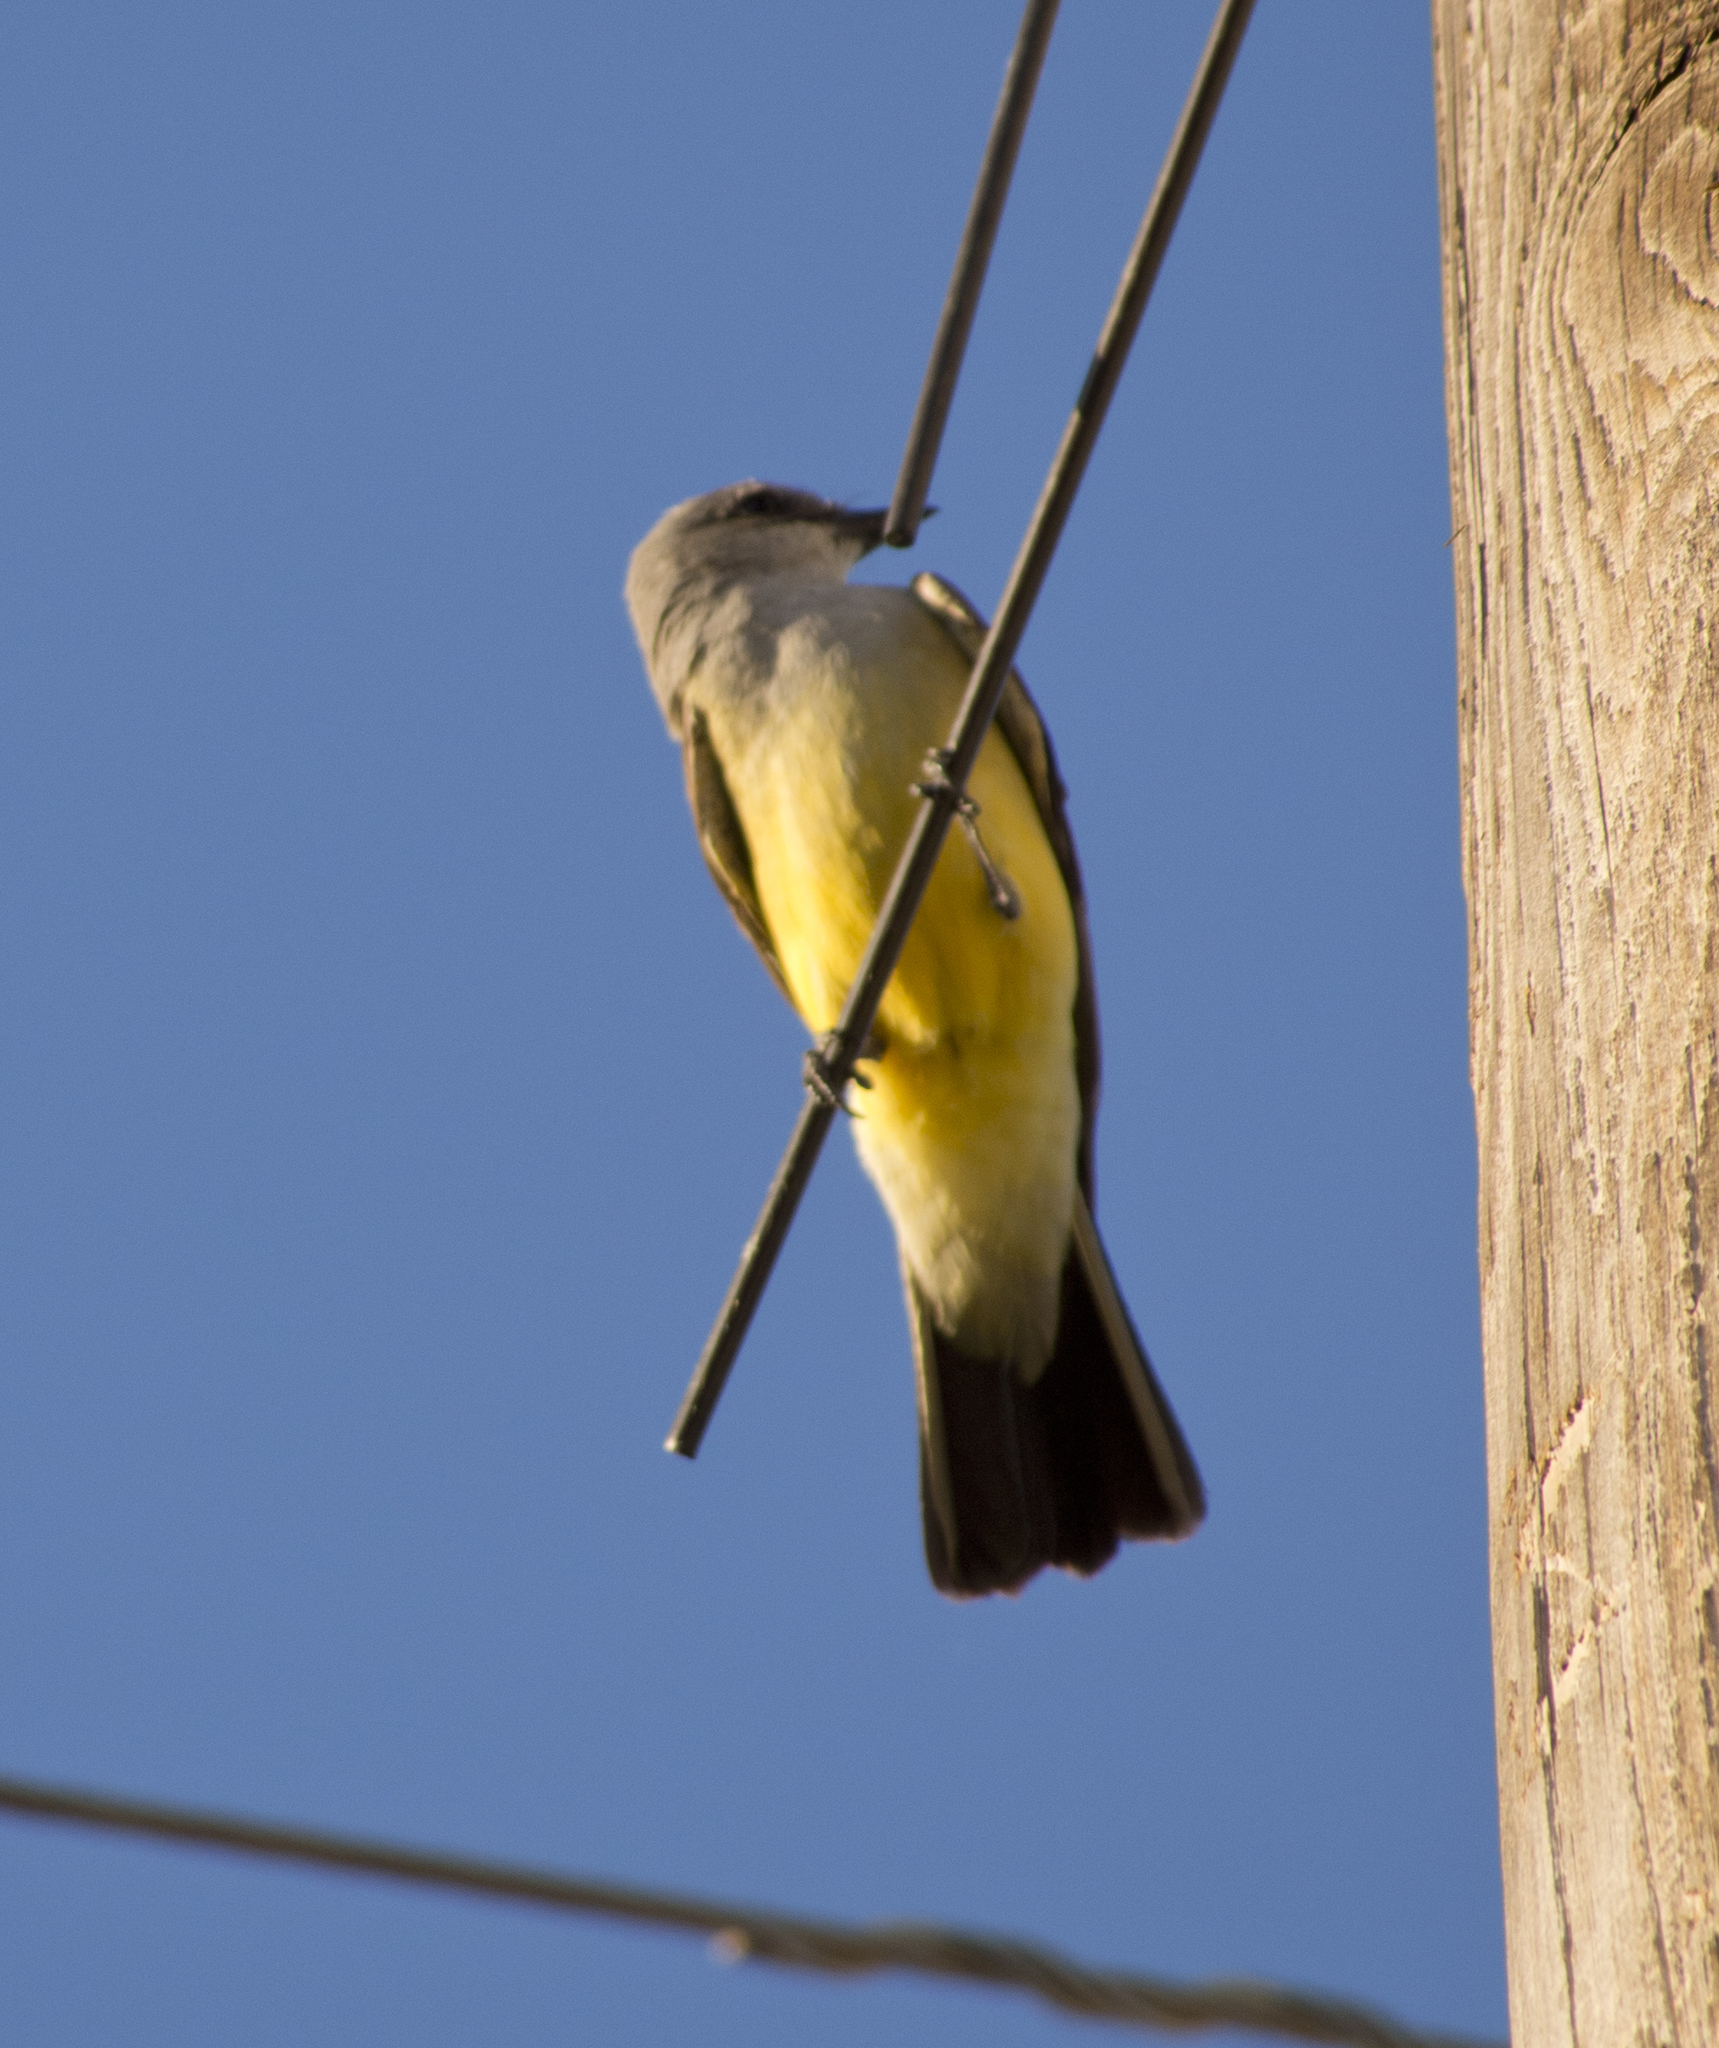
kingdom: Animalia
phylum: Chordata
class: Aves
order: Passeriformes
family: Tyrannidae
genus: Tyrannus
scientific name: Tyrannus verticalis
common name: Western kingbird
